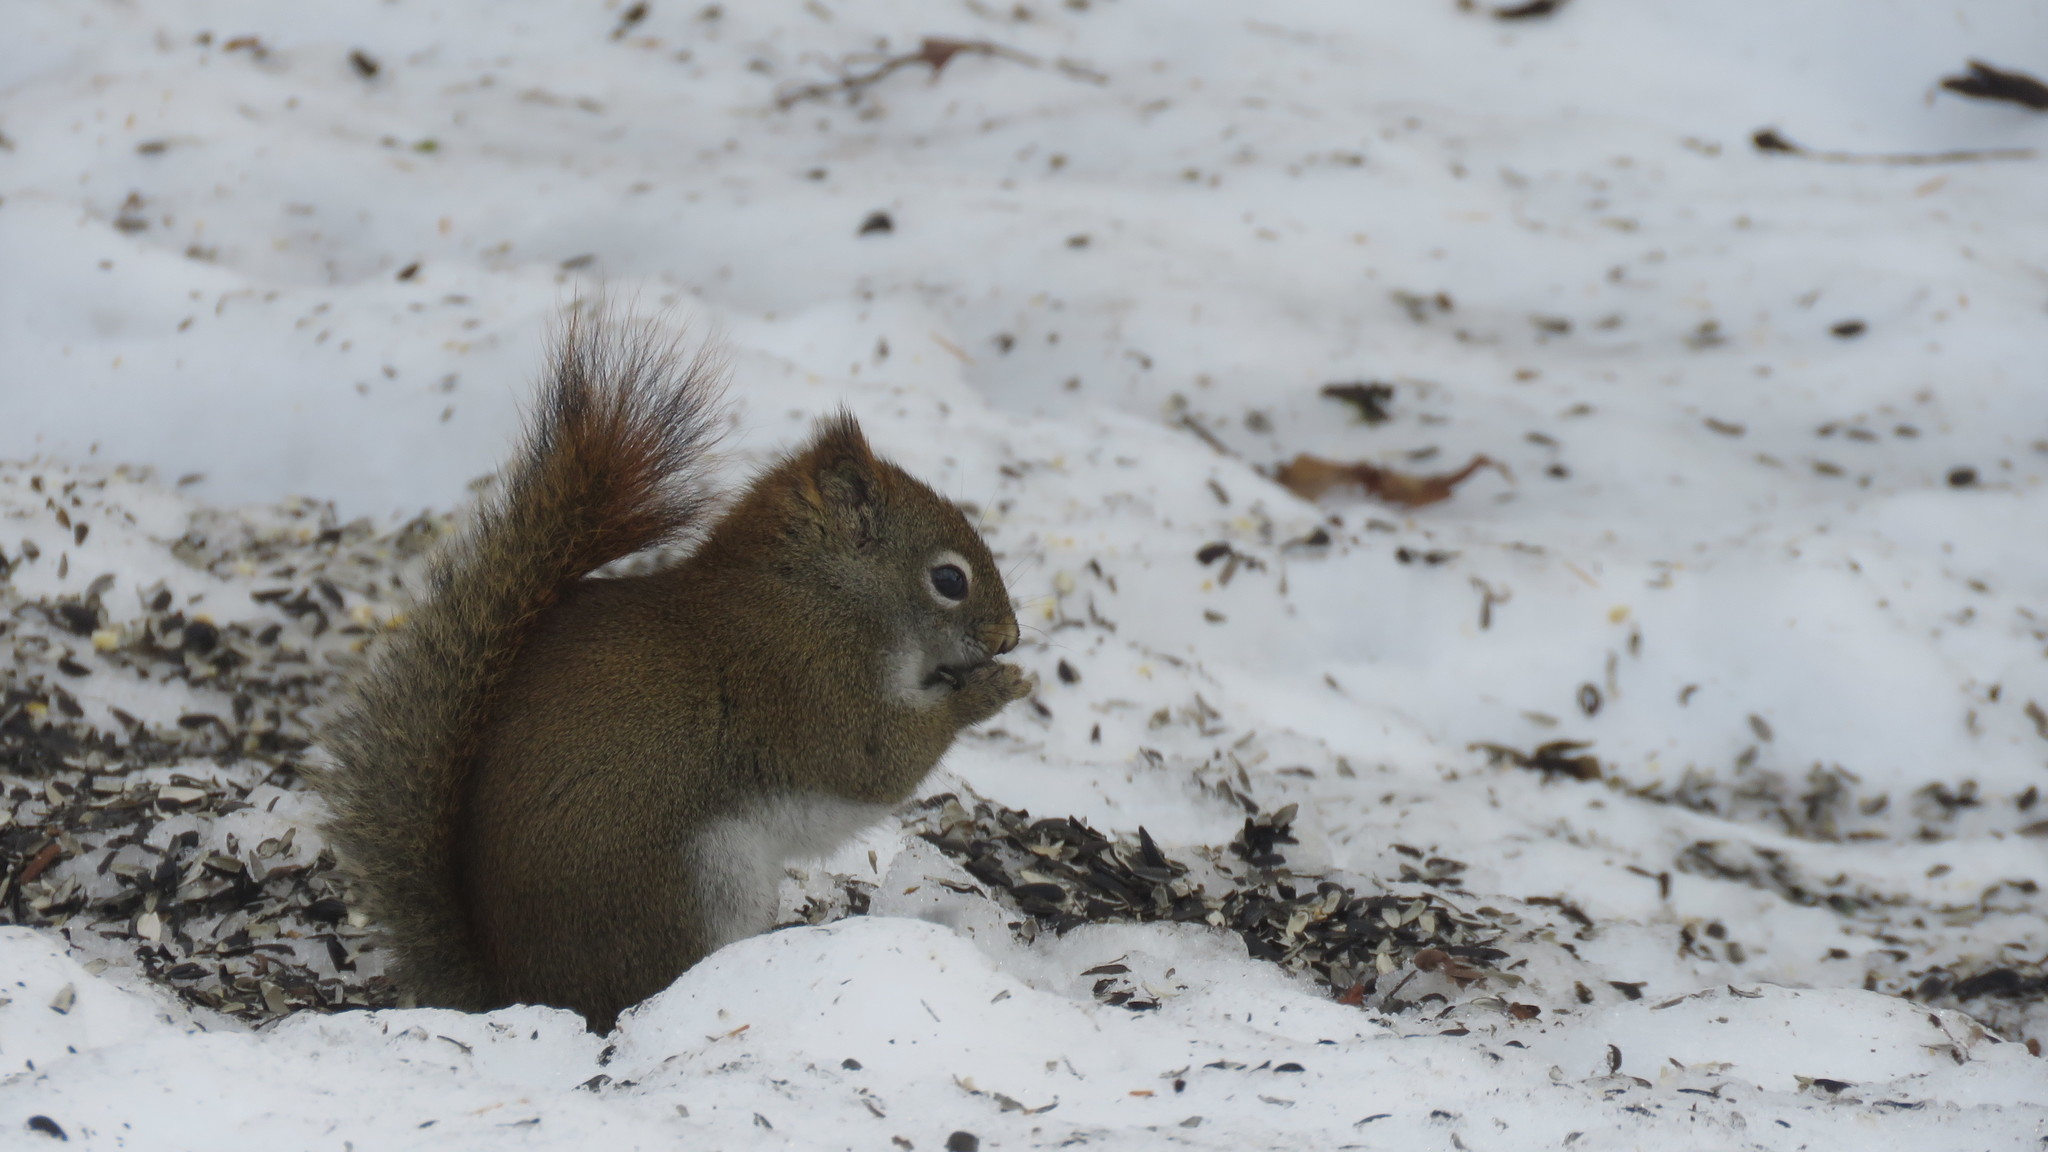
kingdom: Animalia
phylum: Chordata
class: Mammalia
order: Rodentia
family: Sciuridae
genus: Tamiasciurus
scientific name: Tamiasciurus hudsonicus
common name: Red squirrel
